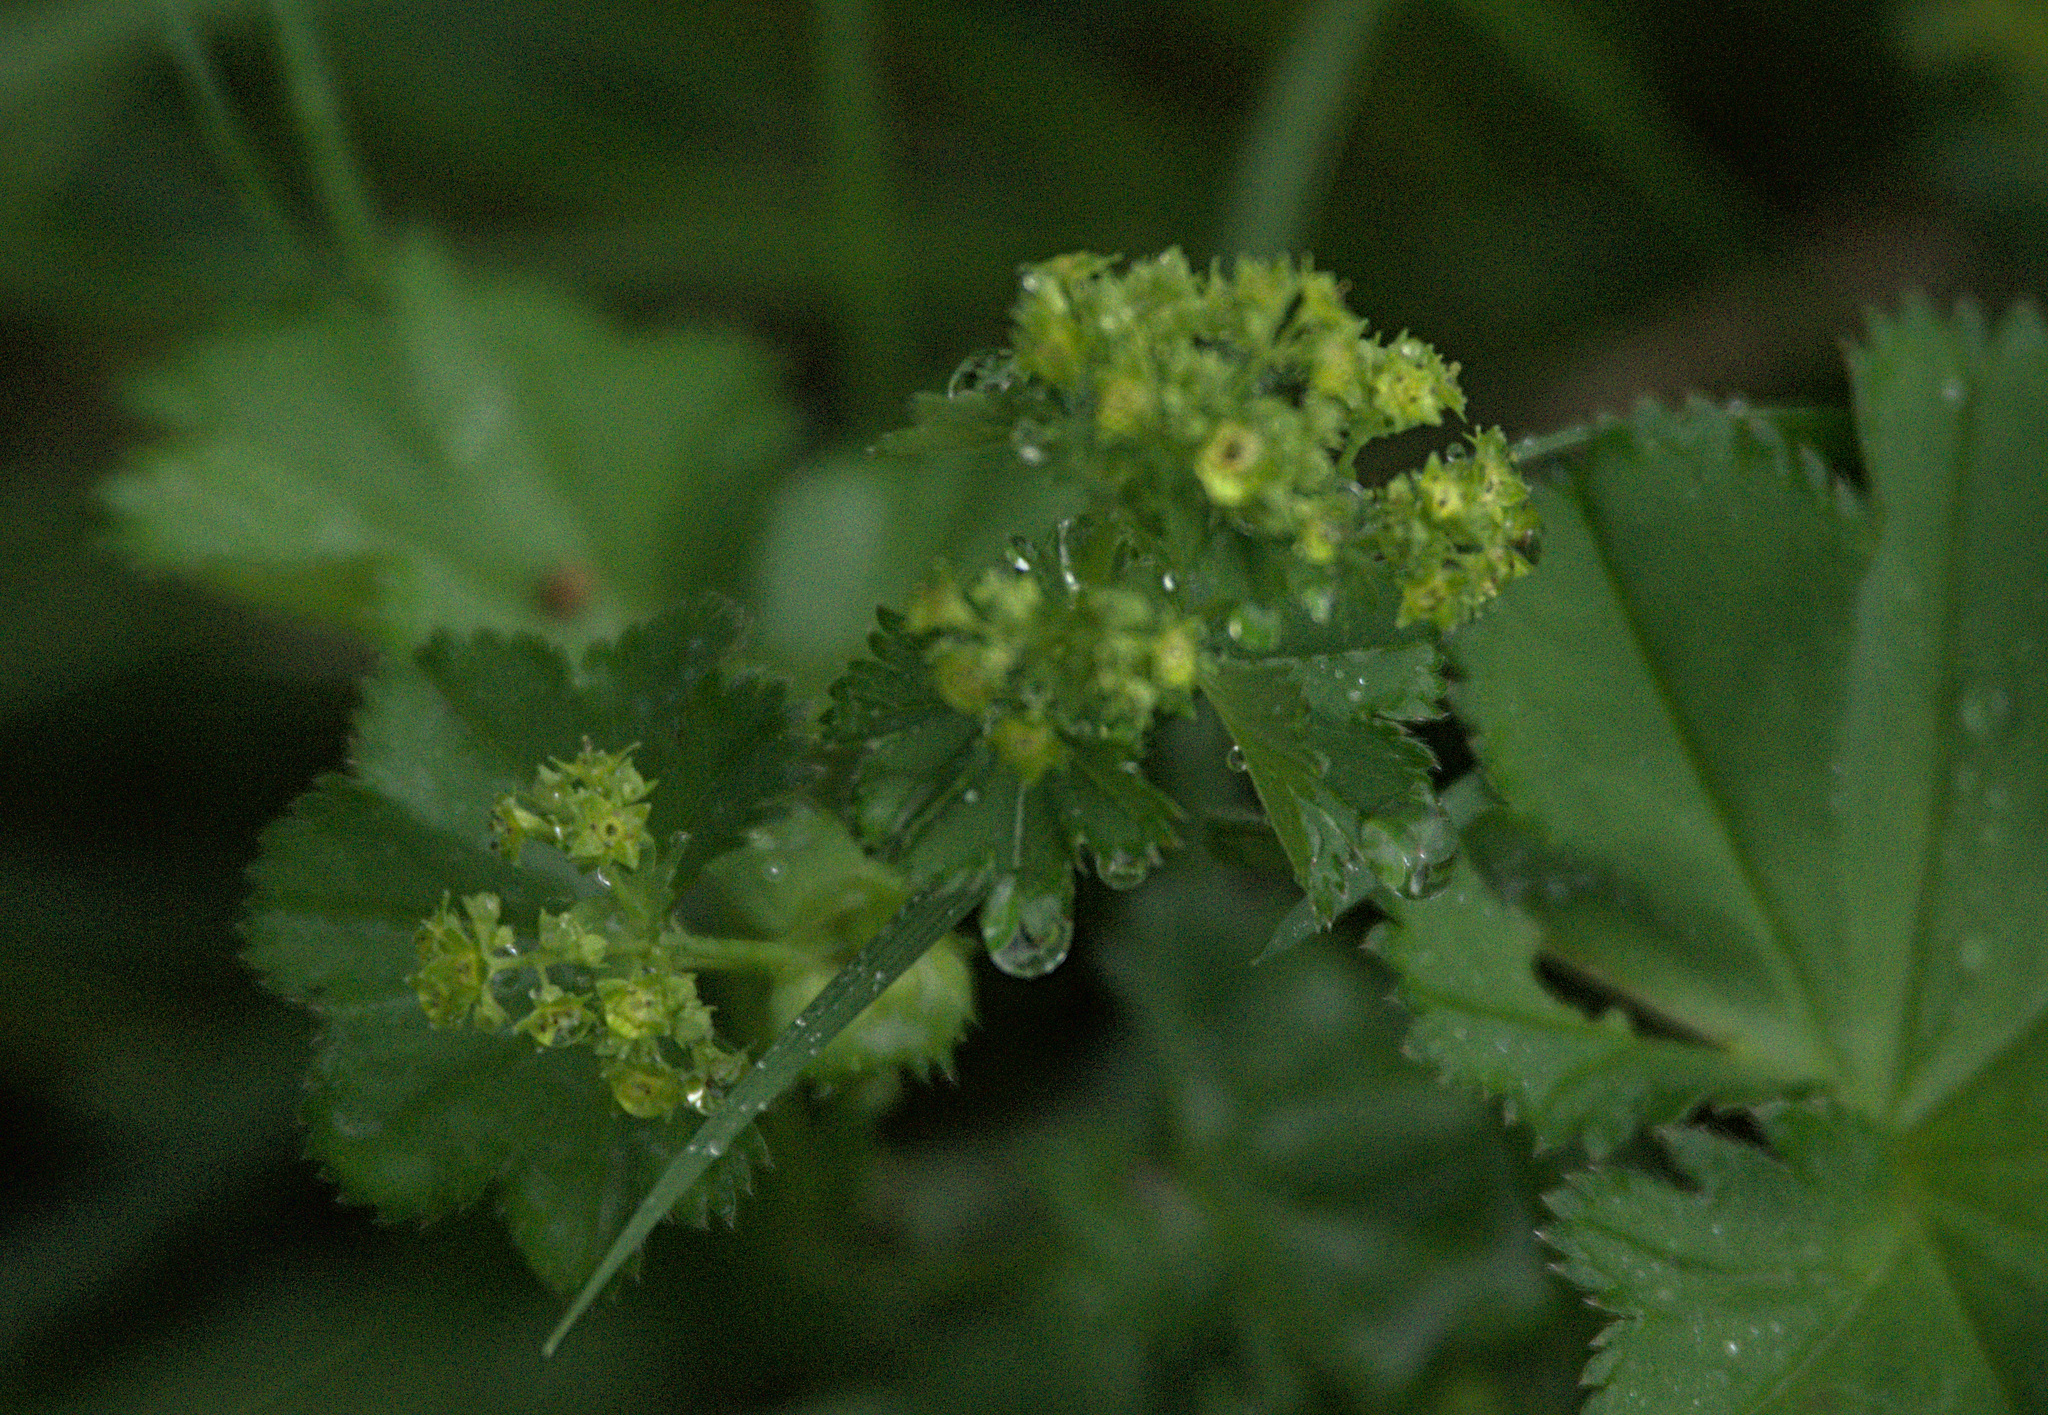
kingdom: Plantae
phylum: Tracheophyta
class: Magnoliopsida
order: Rosales
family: Rosaceae
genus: Alchemilla
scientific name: Alchemilla
